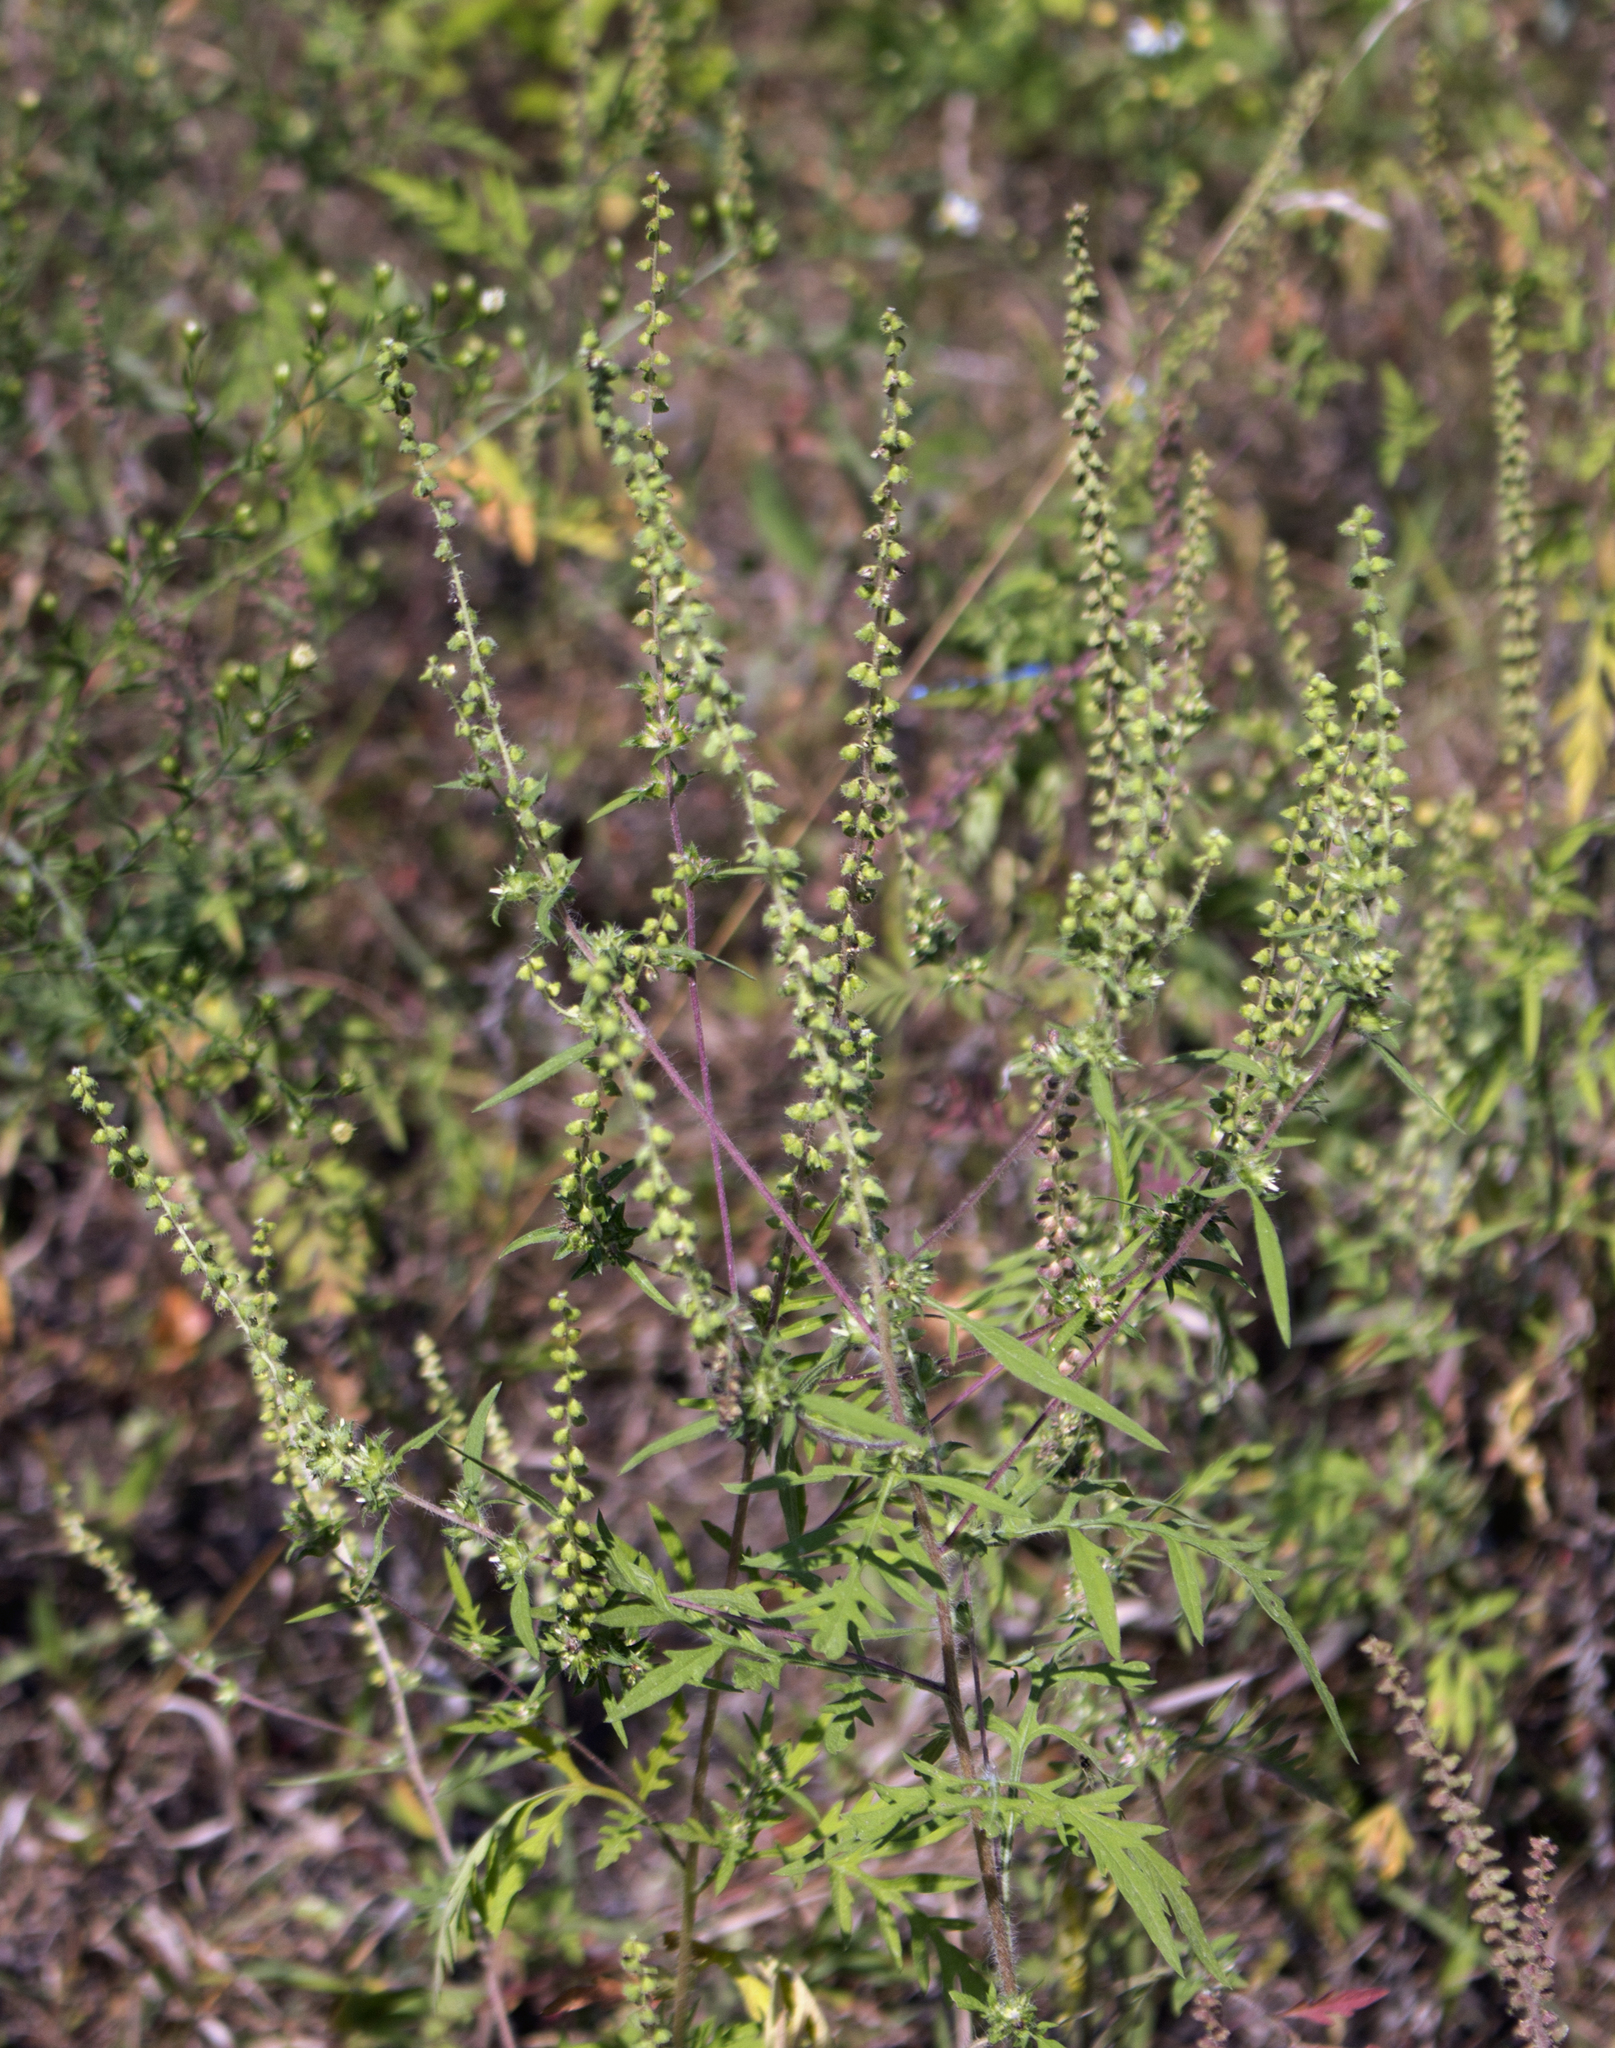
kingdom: Plantae
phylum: Tracheophyta
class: Magnoliopsida
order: Asterales
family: Asteraceae
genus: Ambrosia
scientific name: Ambrosia artemisiifolia
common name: Annual ragweed
